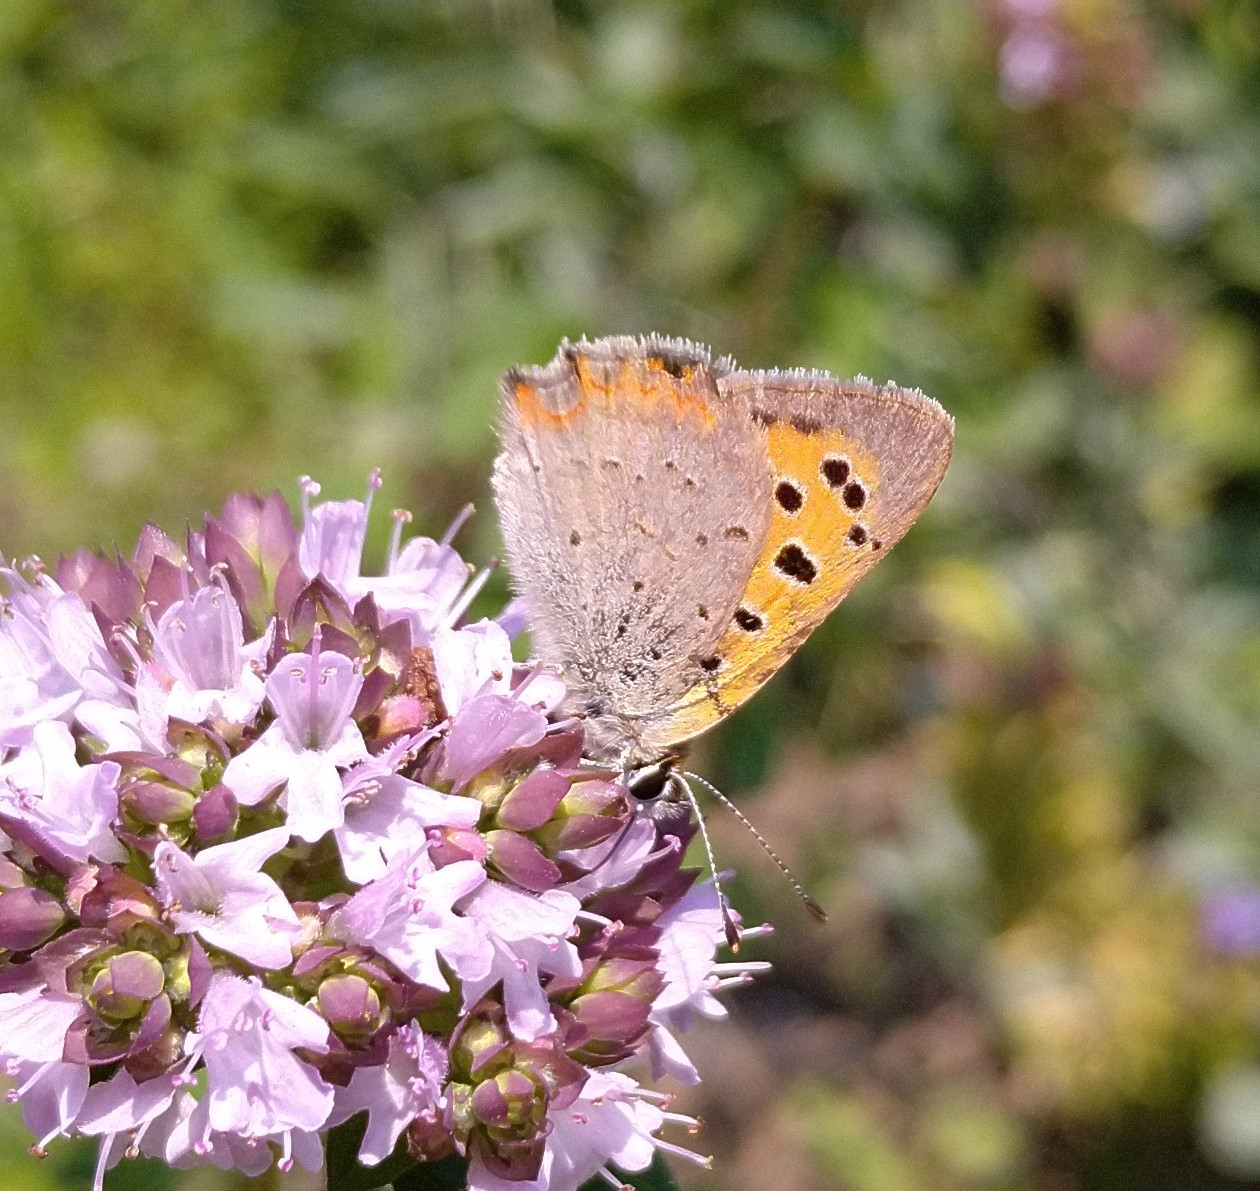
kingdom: Animalia
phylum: Arthropoda
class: Insecta
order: Lepidoptera
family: Lycaenidae
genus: Lycaena
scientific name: Lycaena phlaeas
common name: Small copper
